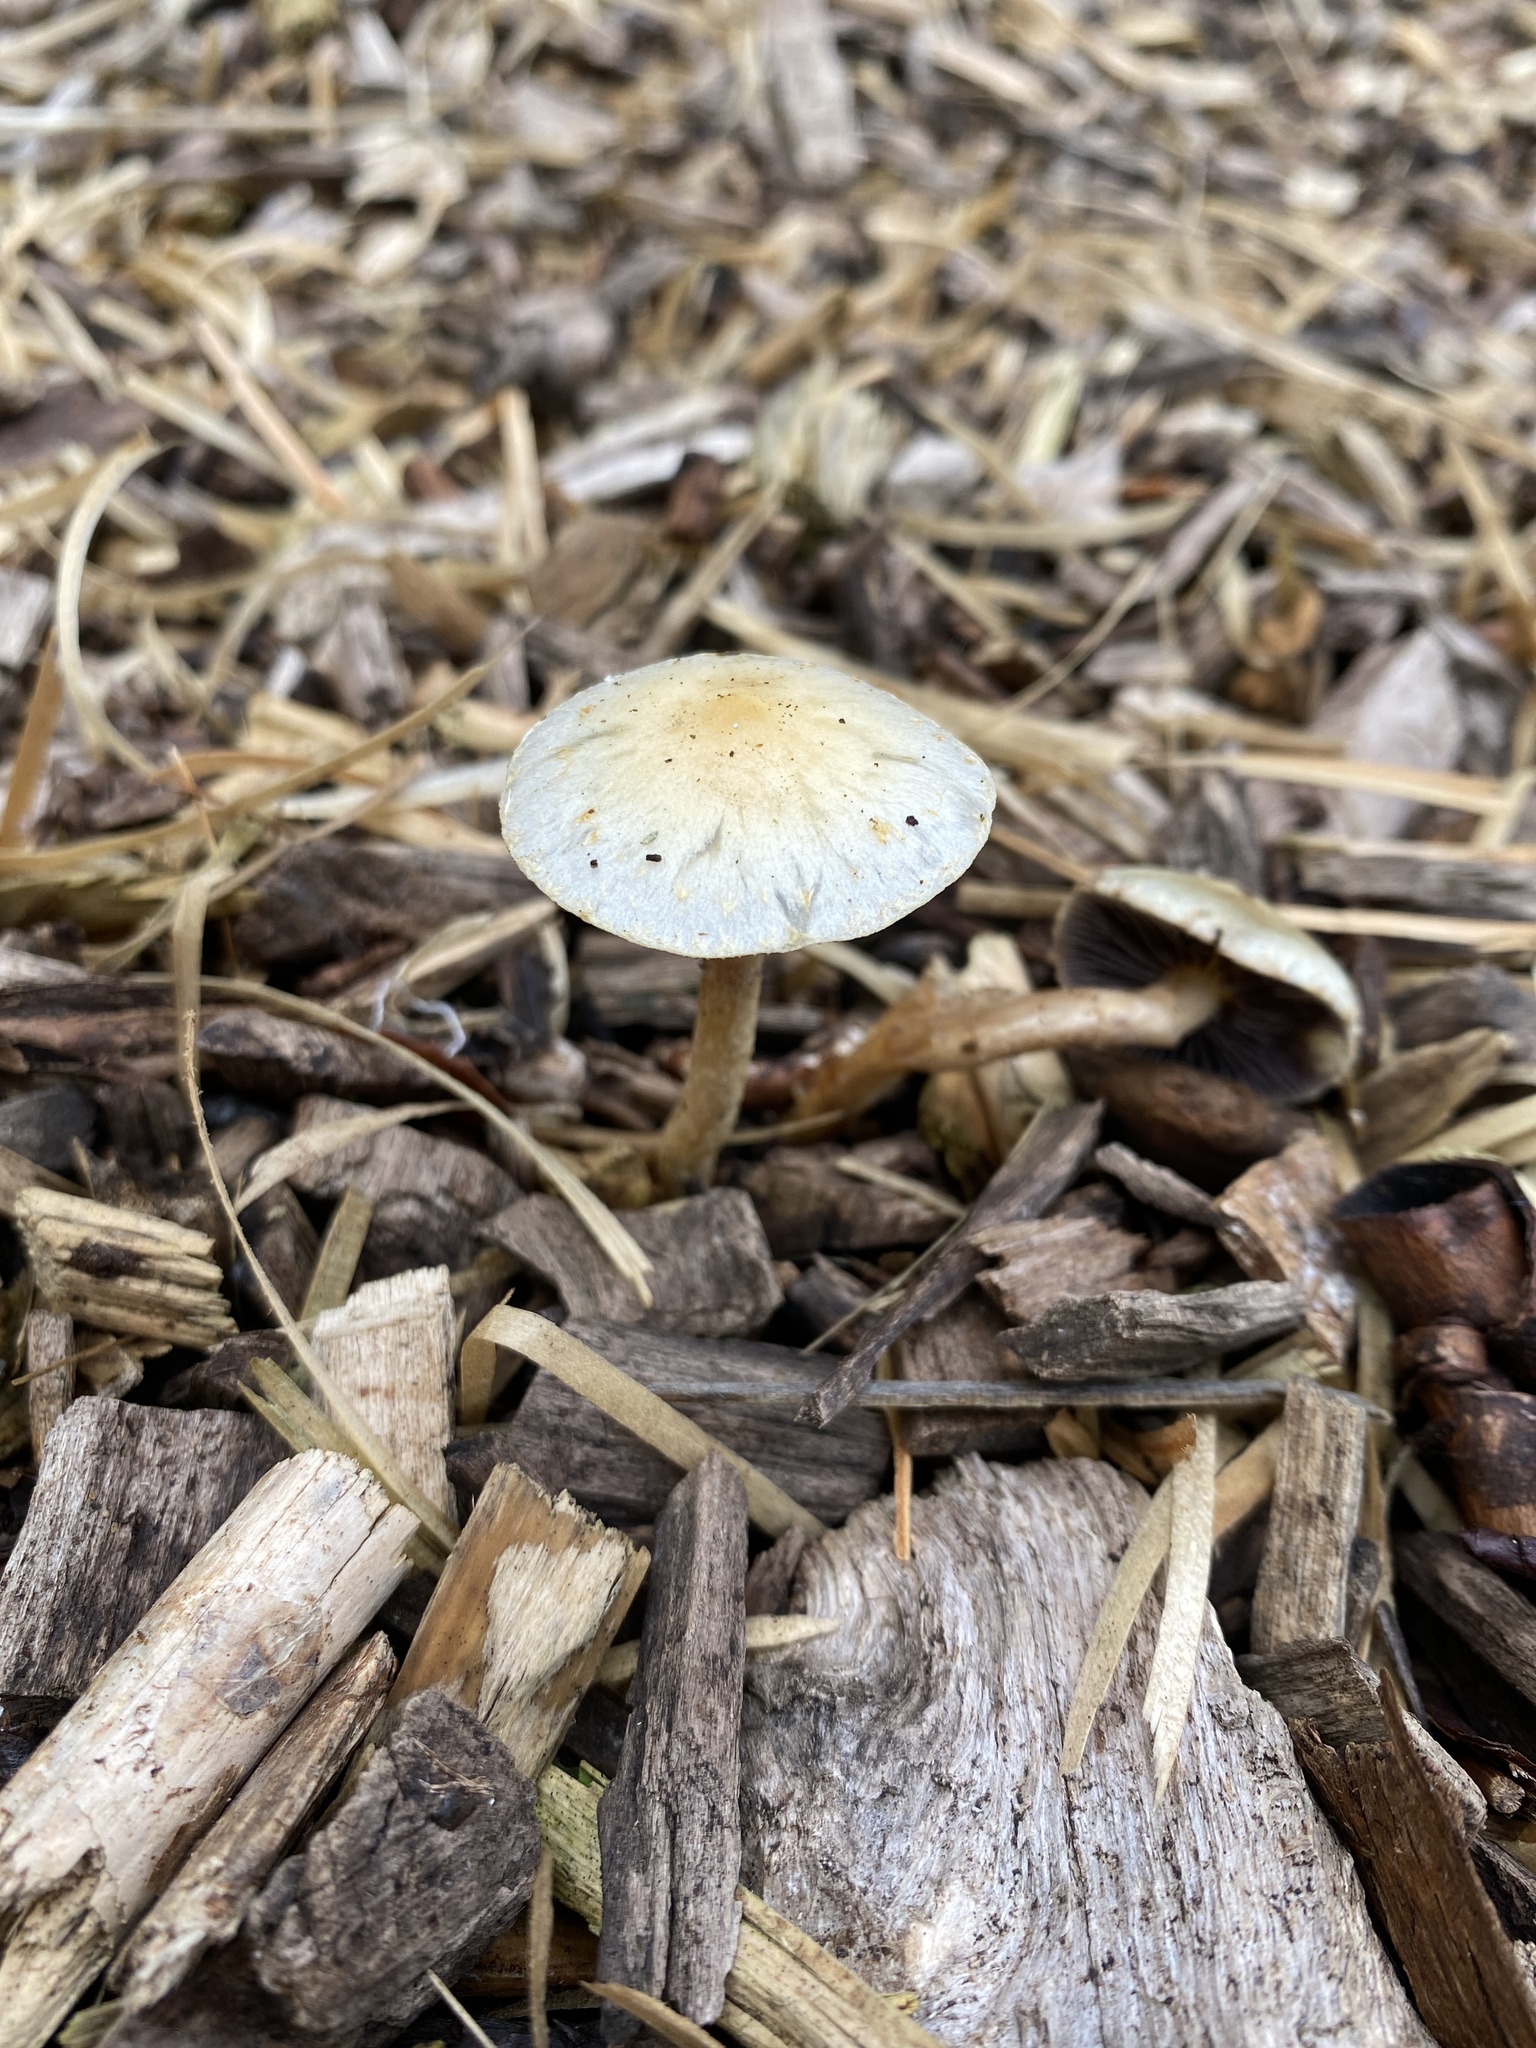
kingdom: Fungi
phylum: Basidiomycota
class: Agaricomycetes
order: Agaricales
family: Agaricaceae
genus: Lepiota
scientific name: Lepiota cristata
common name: Stinking dapperling
